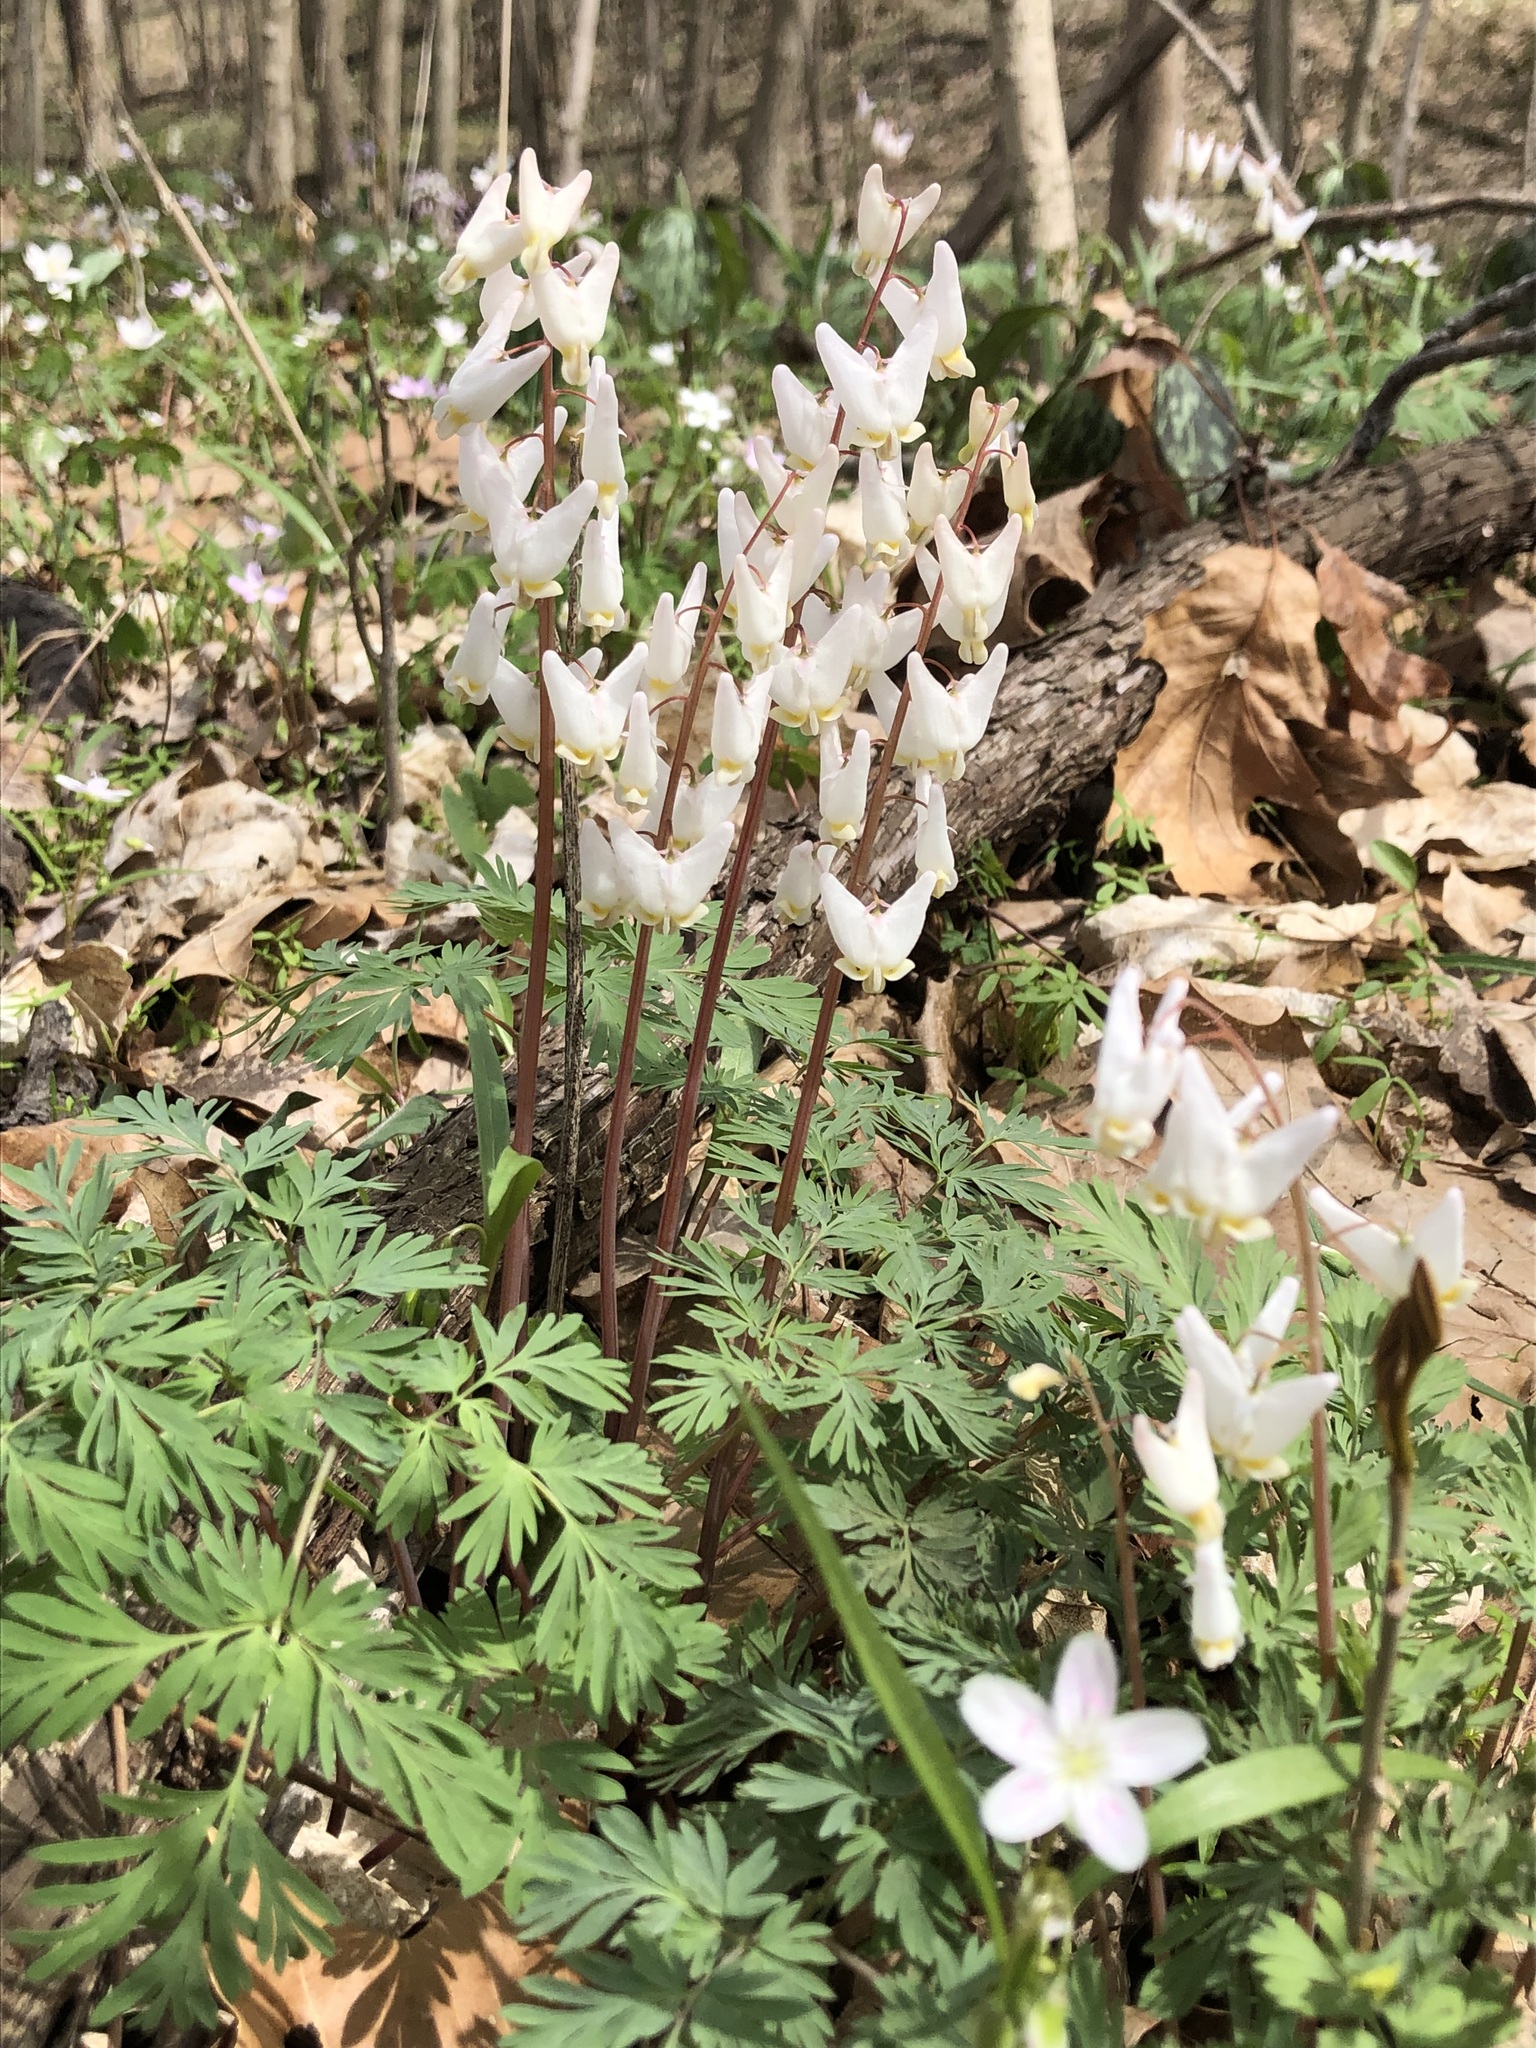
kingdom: Plantae
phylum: Tracheophyta
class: Magnoliopsida
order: Ranunculales
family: Papaveraceae
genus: Dicentra
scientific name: Dicentra cucullaria
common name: Dutchman's breeches
